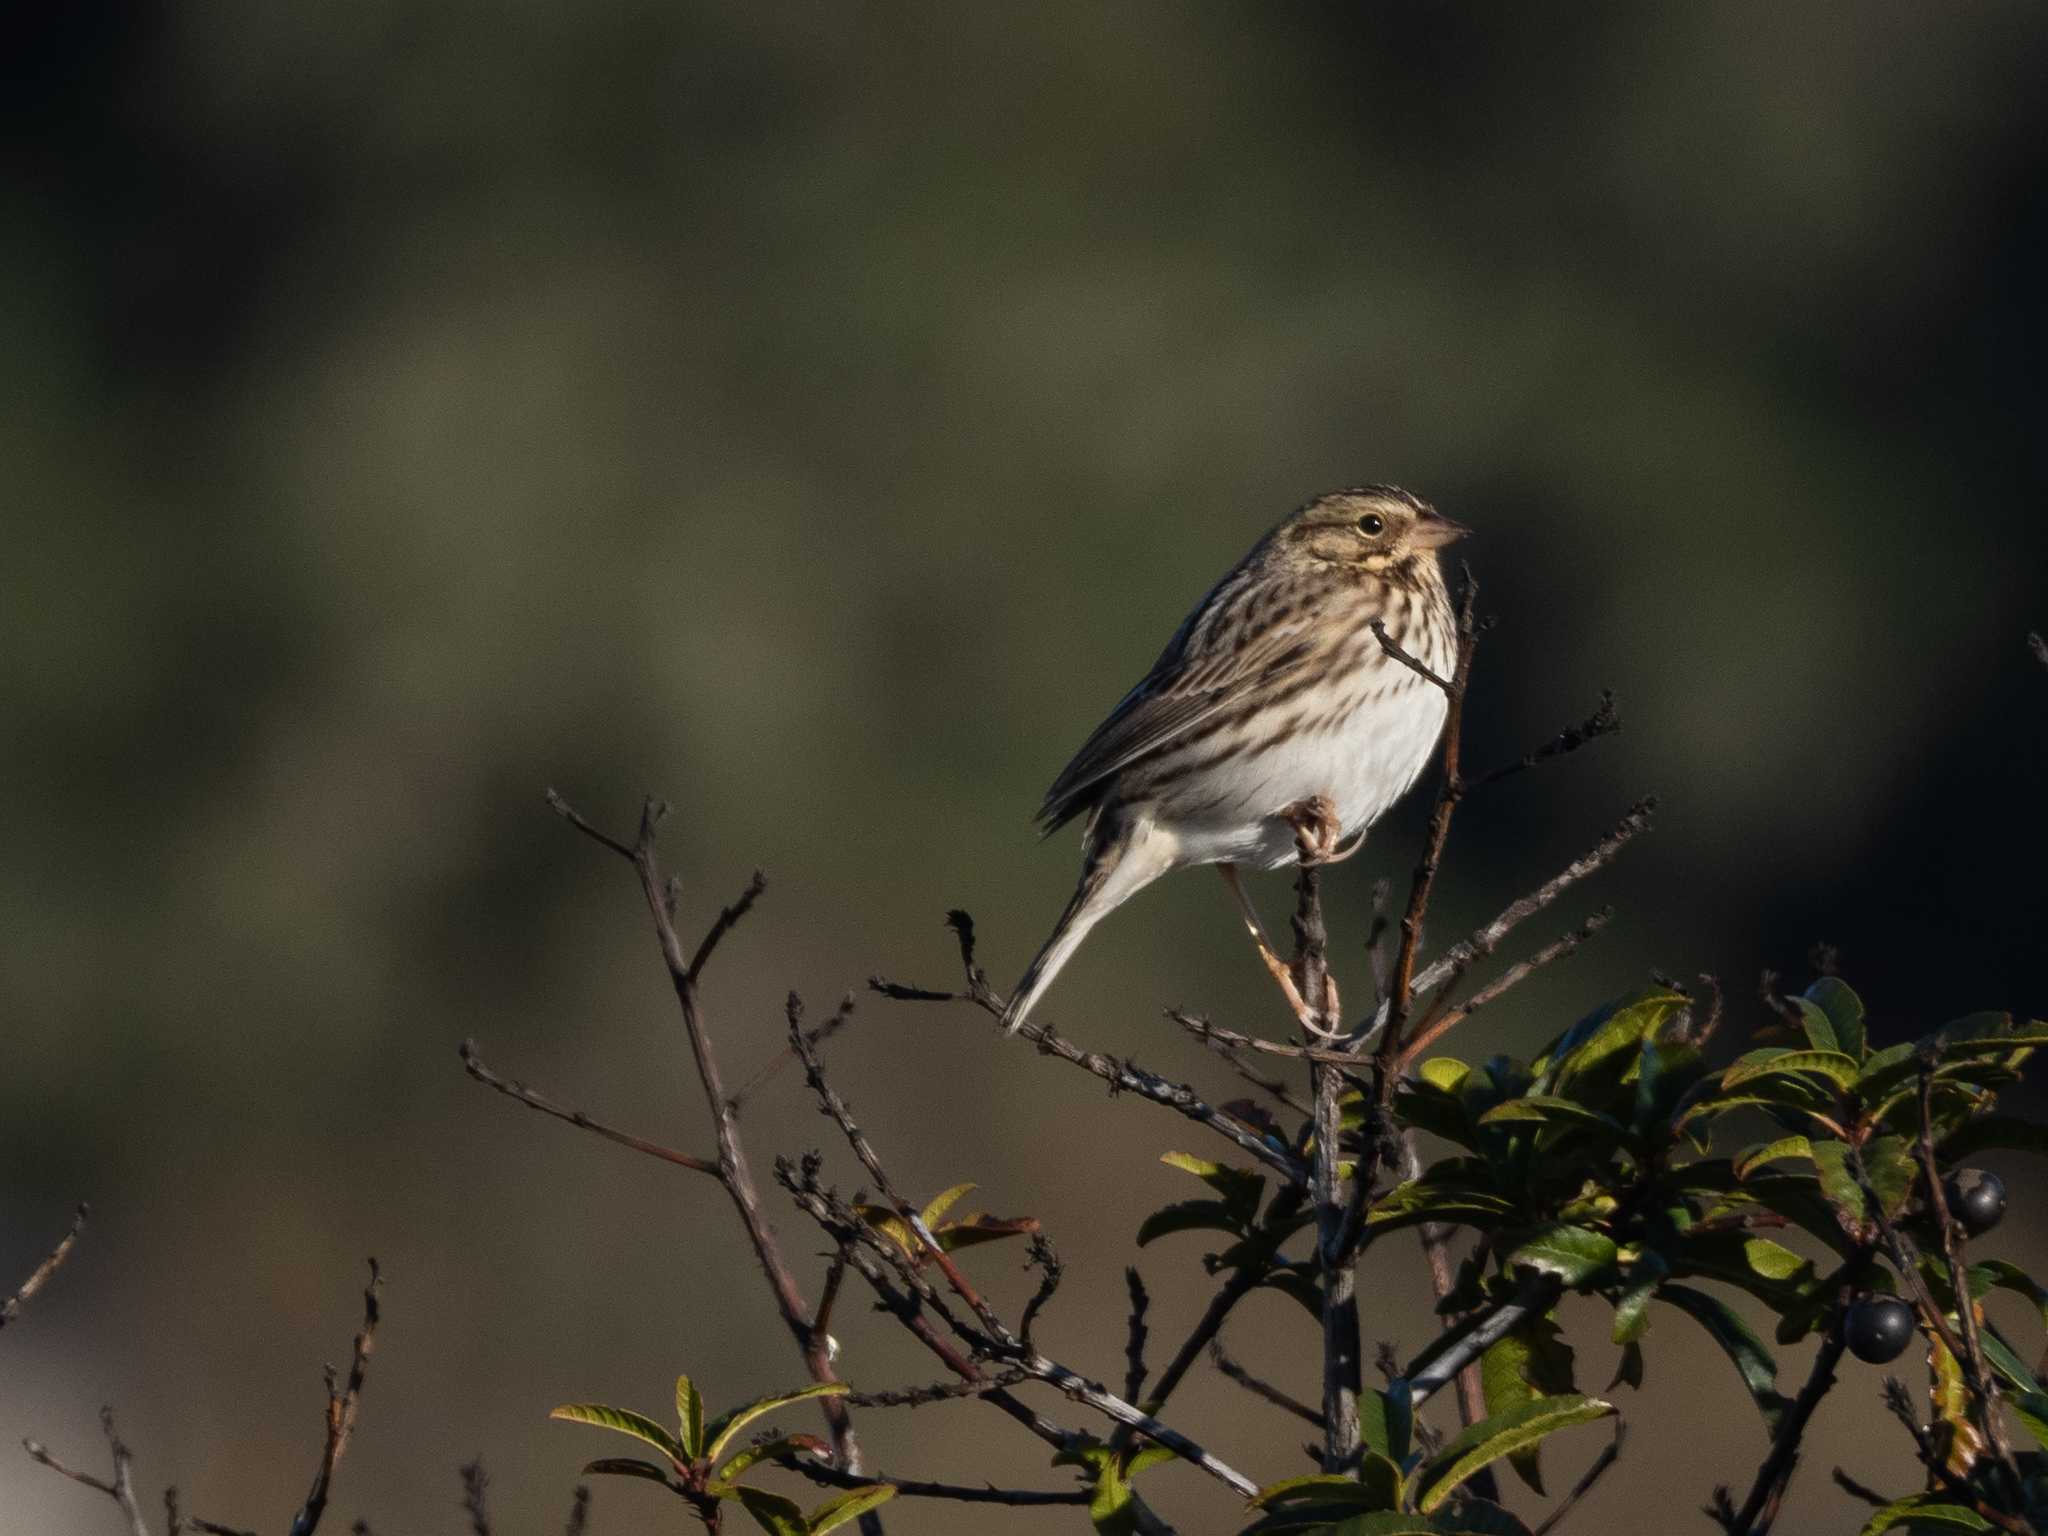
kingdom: Animalia
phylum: Chordata
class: Aves
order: Passeriformes
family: Passerellidae
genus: Passerculus
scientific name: Passerculus sandwichensis
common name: Savannah sparrow
